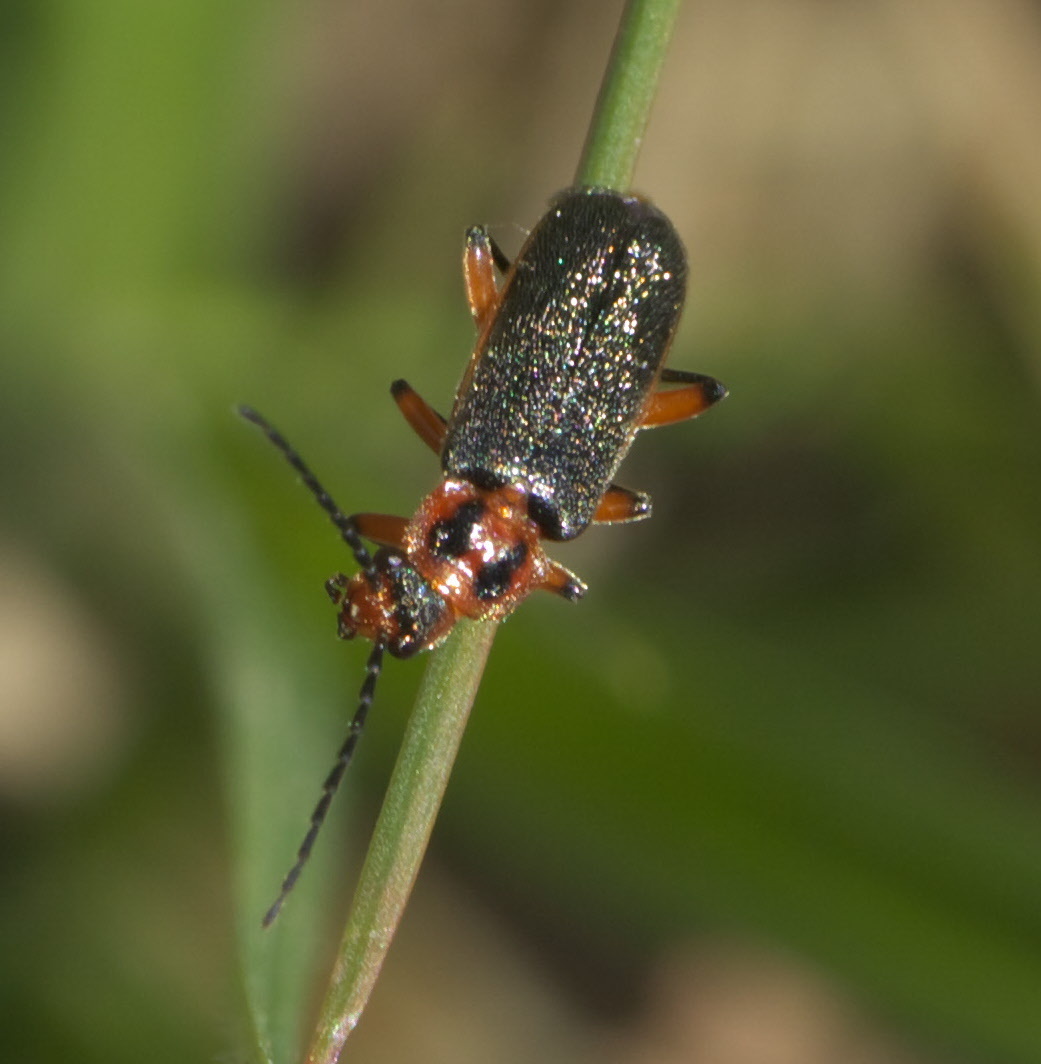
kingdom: Animalia
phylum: Arthropoda
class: Insecta
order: Coleoptera
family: Cantharidae
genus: Atalantycha
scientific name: Atalantycha bilineata
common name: Two-lined leatherwing
